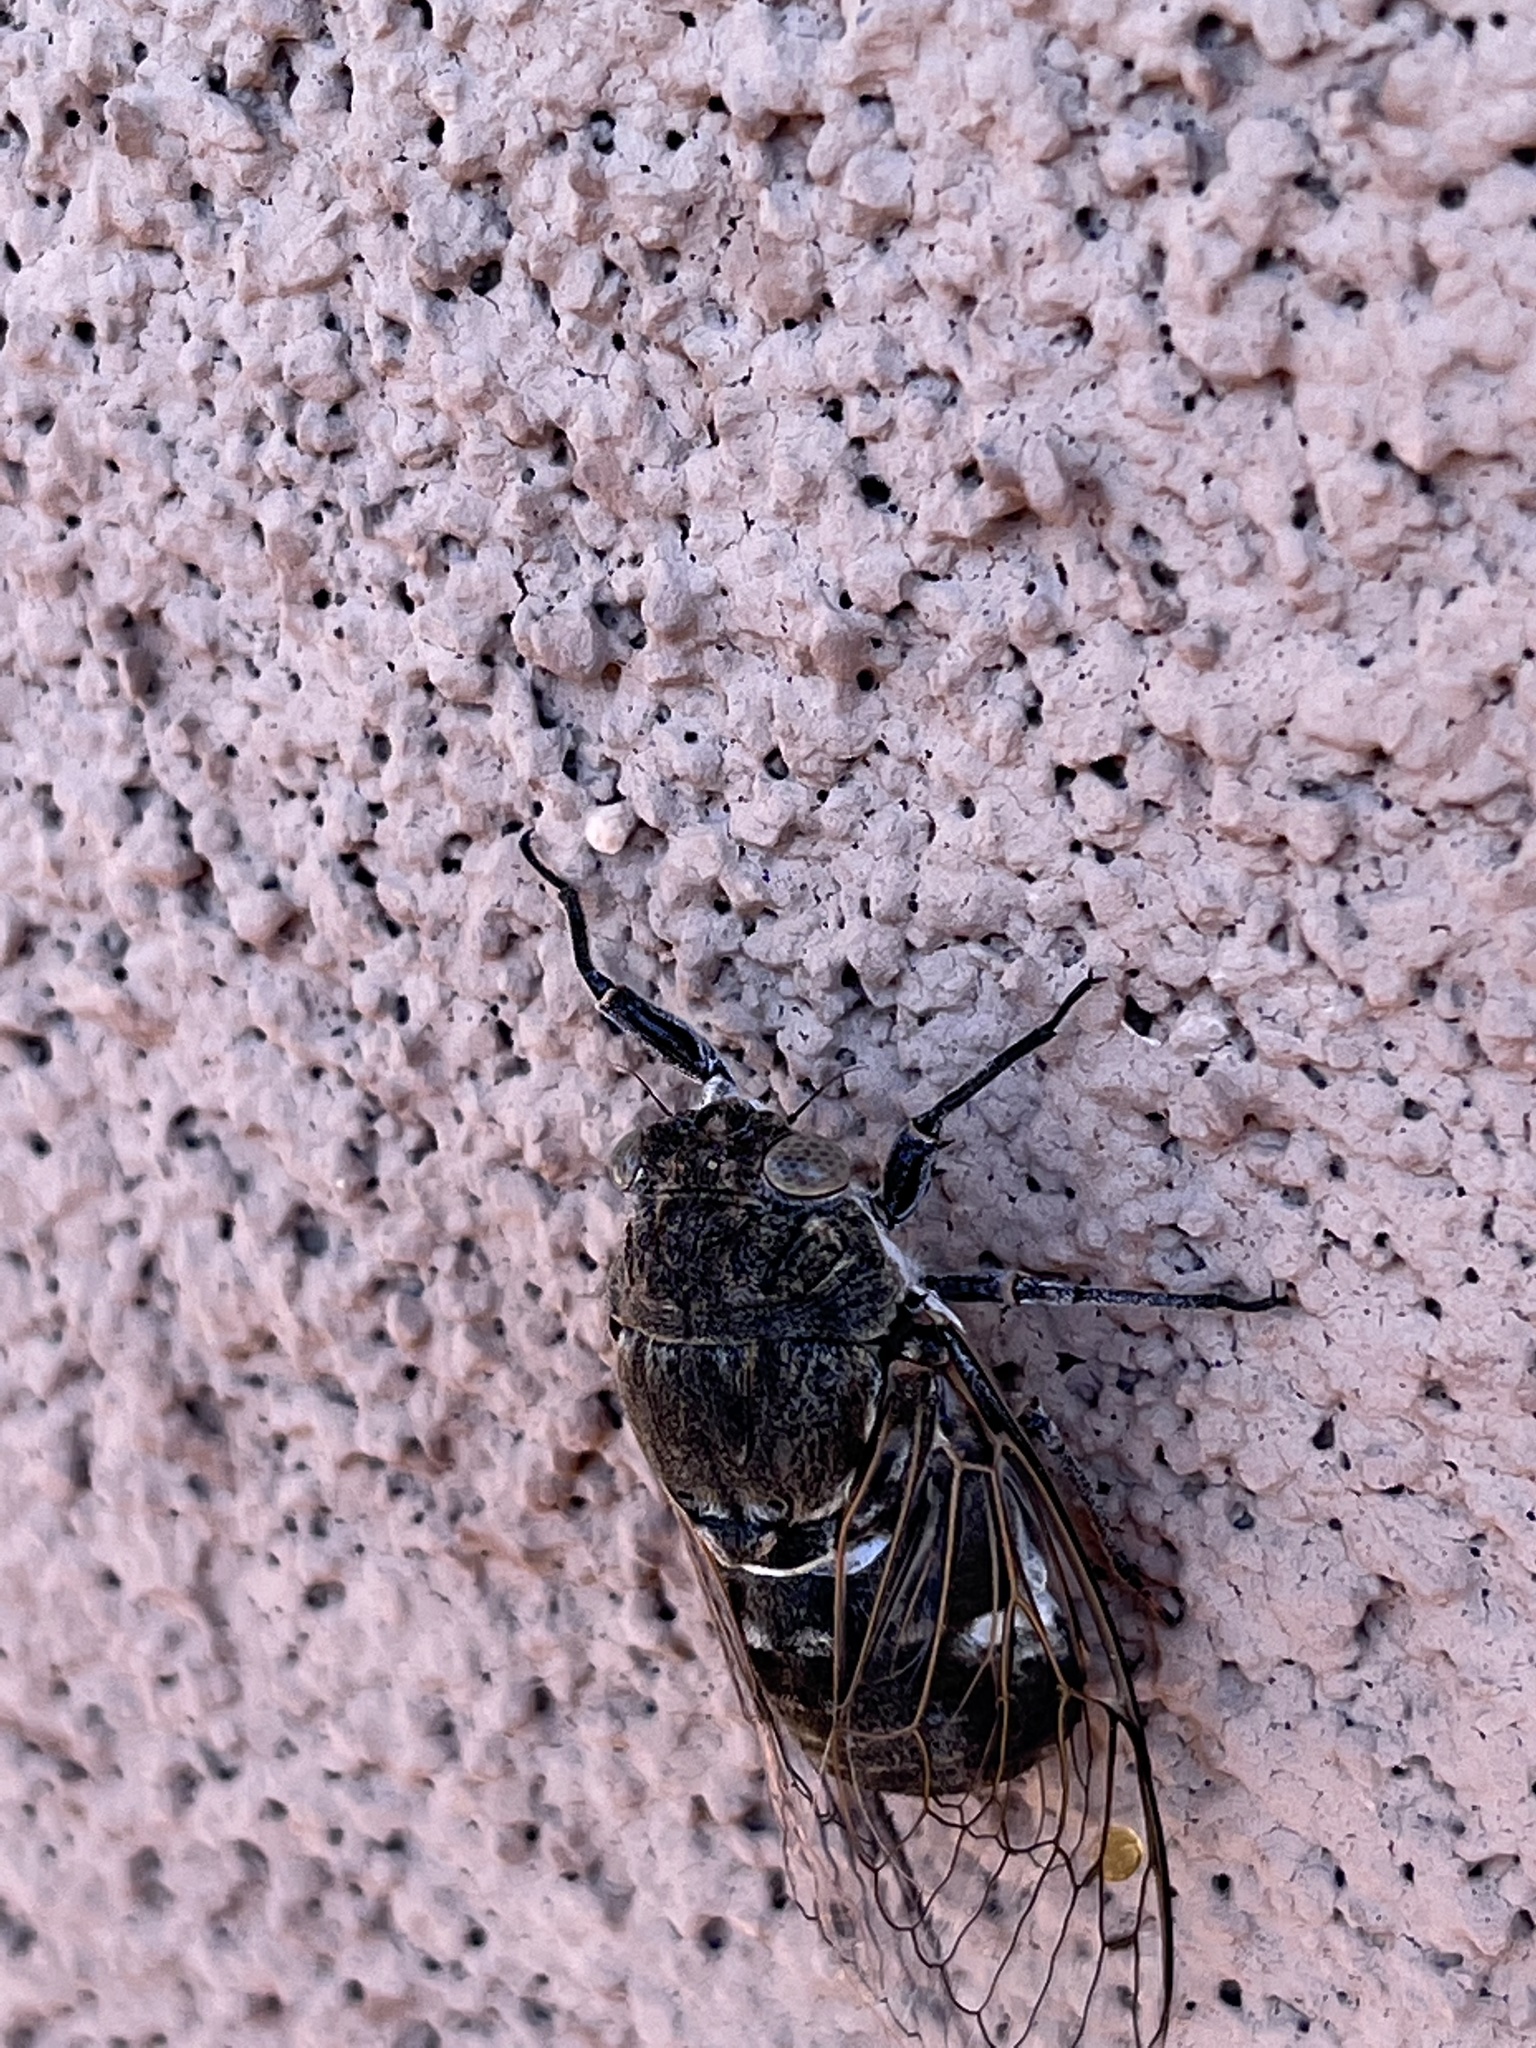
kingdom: Animalia
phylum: Arthropoda
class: Insecta
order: Hemiptera
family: Cicadidae
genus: Cacama
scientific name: Cacama valvata
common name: Cactus dodger
